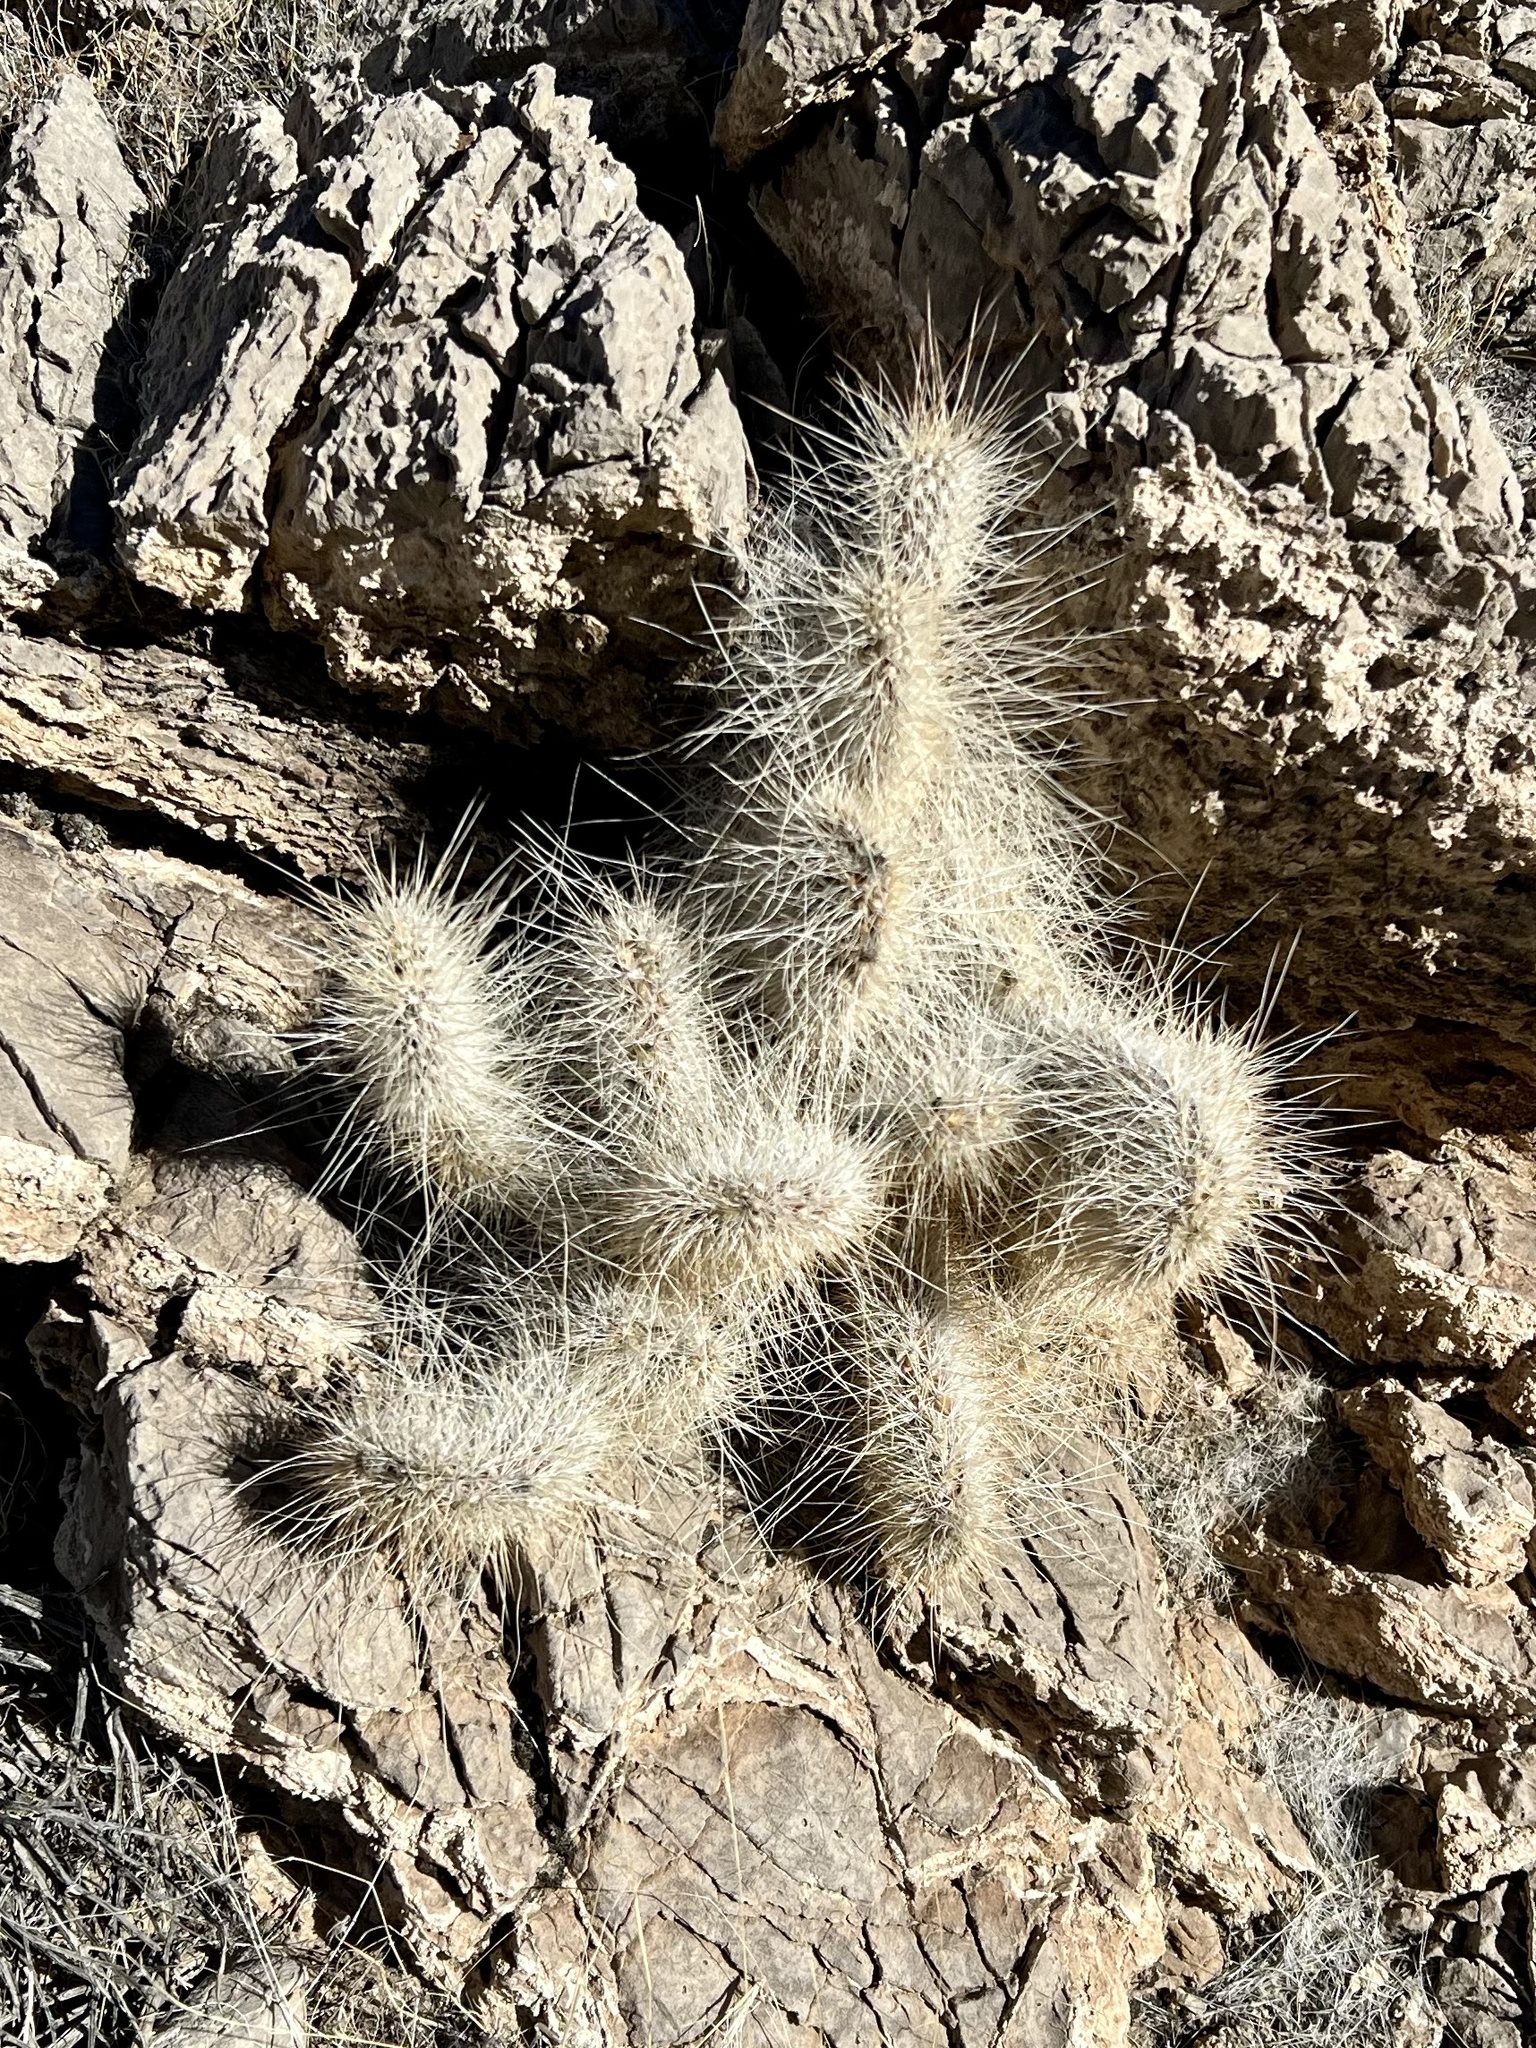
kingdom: Plantae
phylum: Tracheophyta
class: Magnoliopsida
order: Caryophyllales
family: Cactaceae
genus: Opuntia
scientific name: Opuntia polyacantha
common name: Plains prickly-pear
